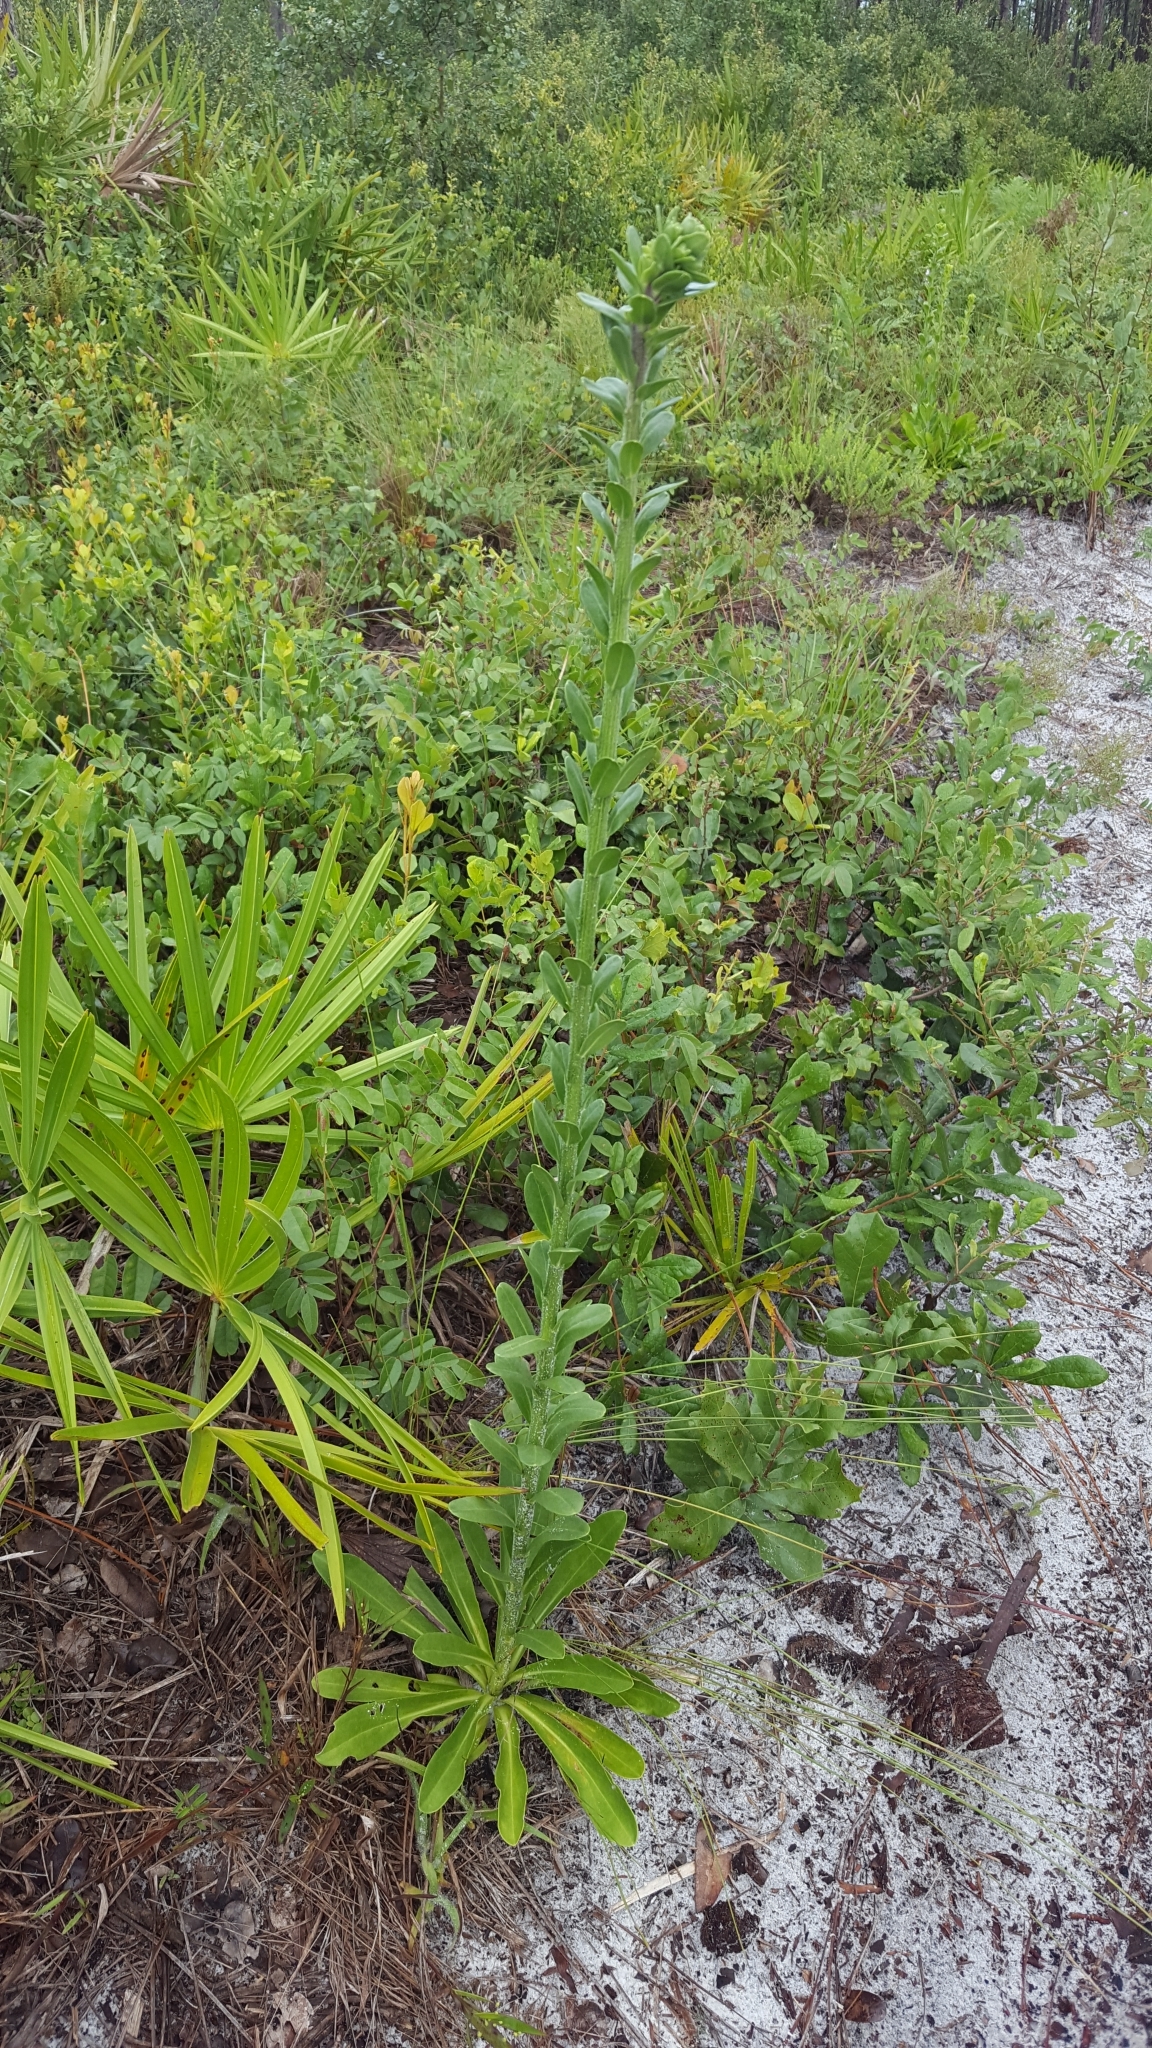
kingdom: Plantae
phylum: Tracheophyta
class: Magnoliopsida
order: Asterales
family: Asteraceae
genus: Carphephorus
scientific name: Carphephorus corymbosus
